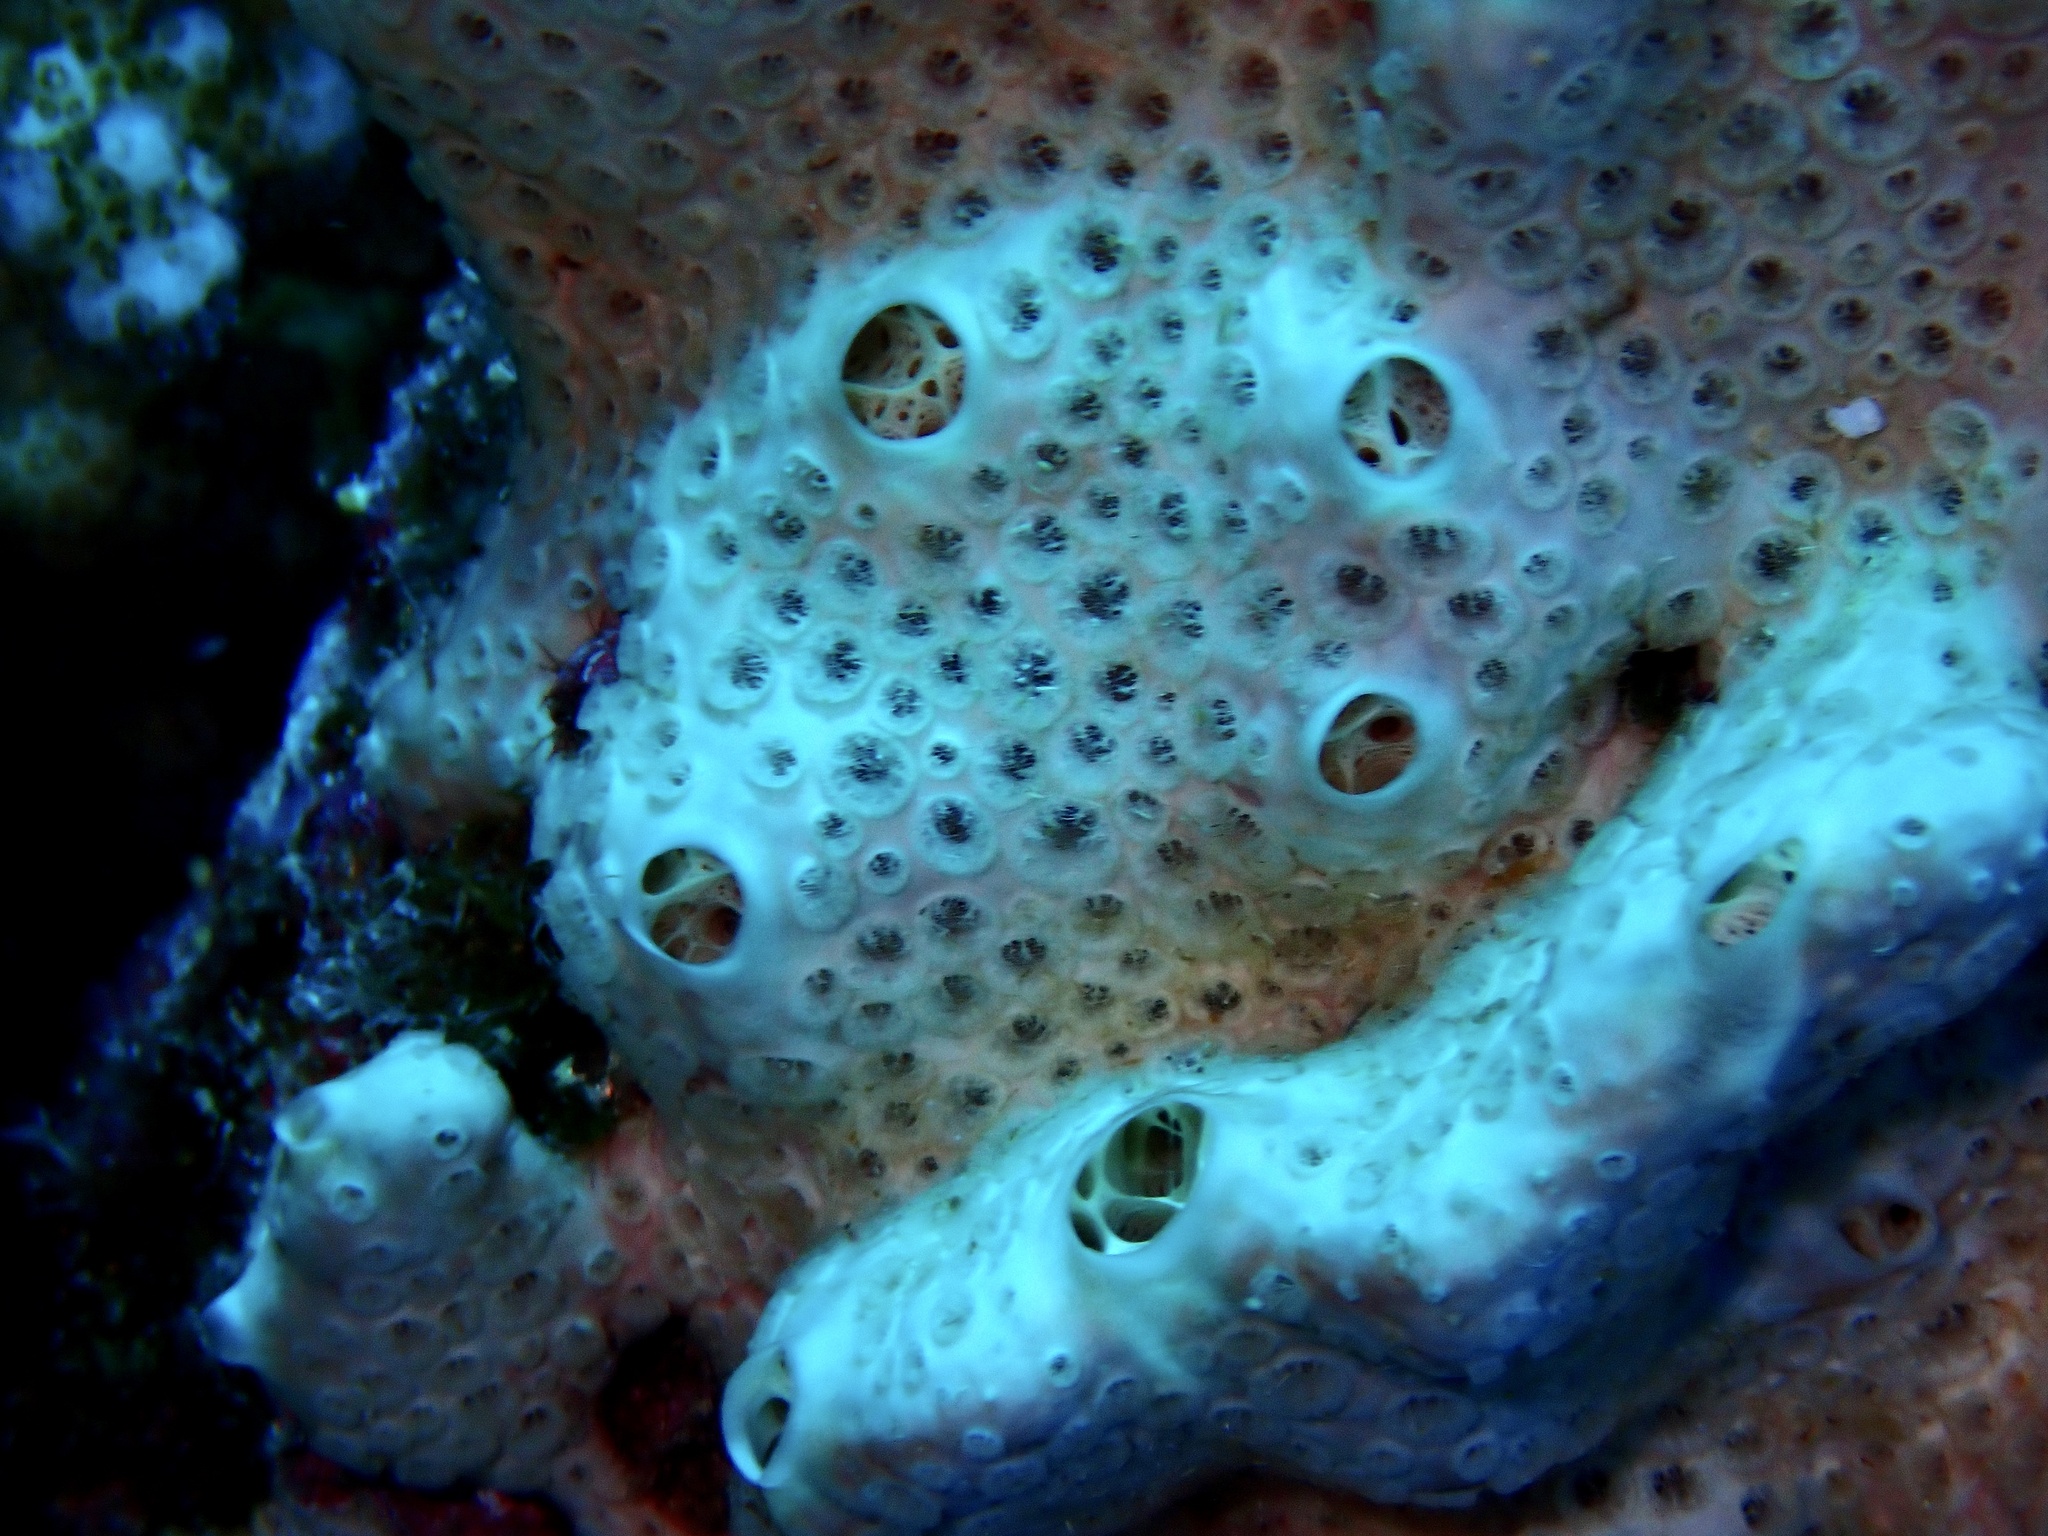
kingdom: Animalia
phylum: Porifera
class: Demospongiae
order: Poecilosclerida
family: Crellidae
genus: Crella
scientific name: Crella cyathophora
